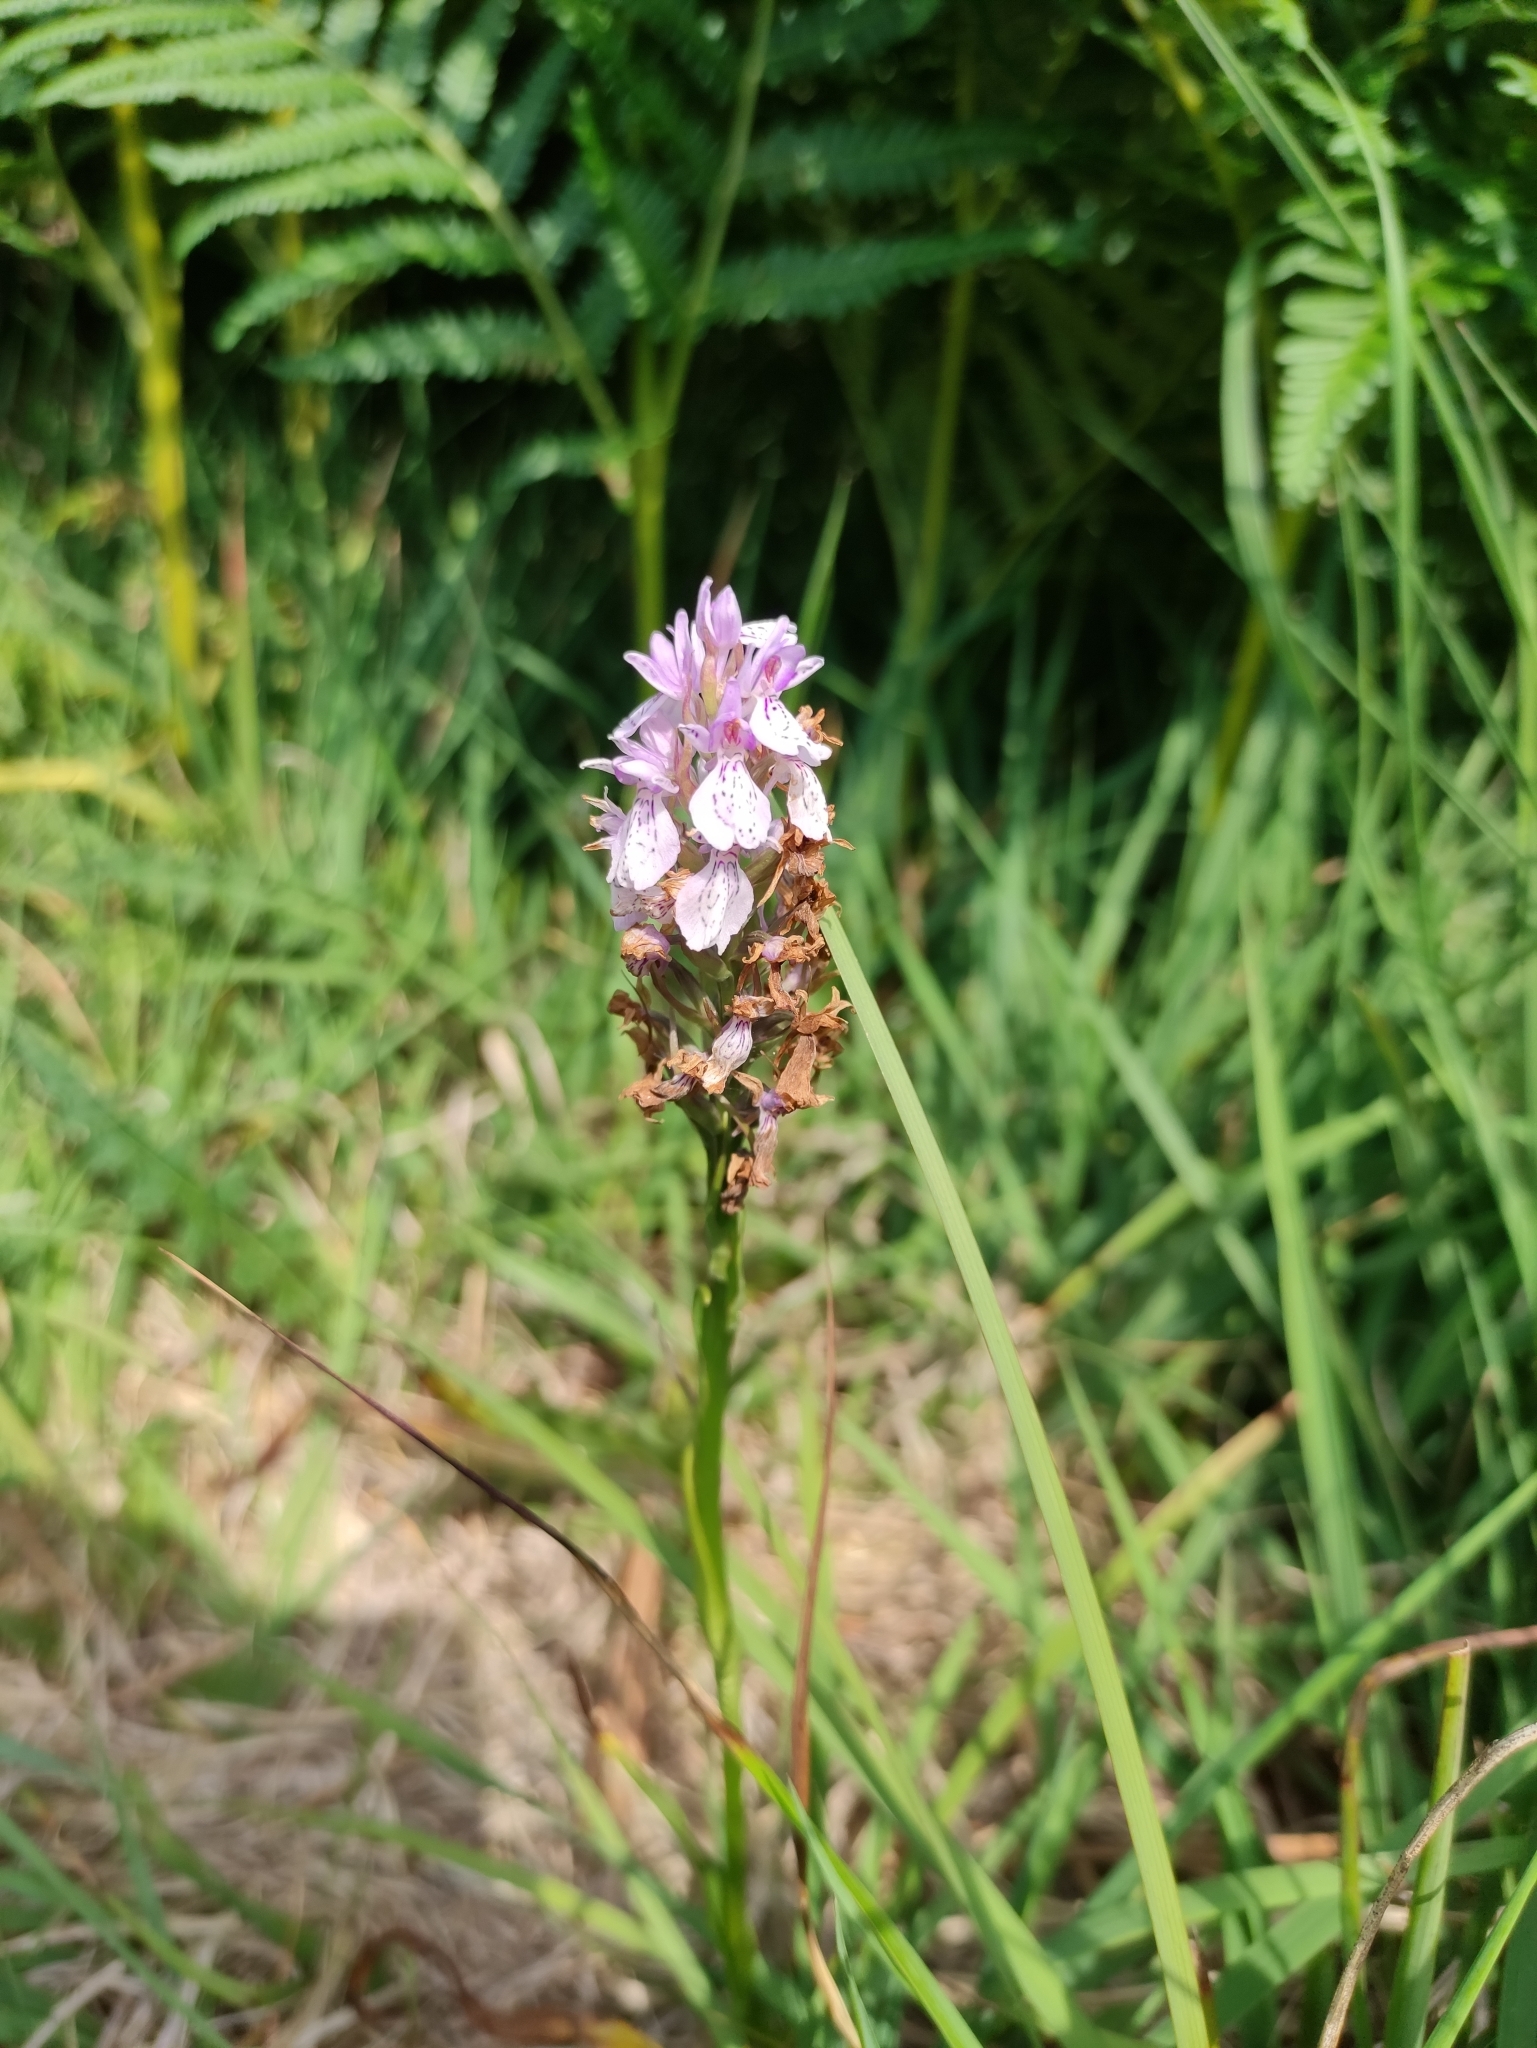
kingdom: Plantae
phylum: Tracheophyta
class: Liliopsida
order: Asparagales
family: Orchidaceae
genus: Dactylorhiza
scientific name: Dactylorhiza maculata
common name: Heath spotted-orchid
